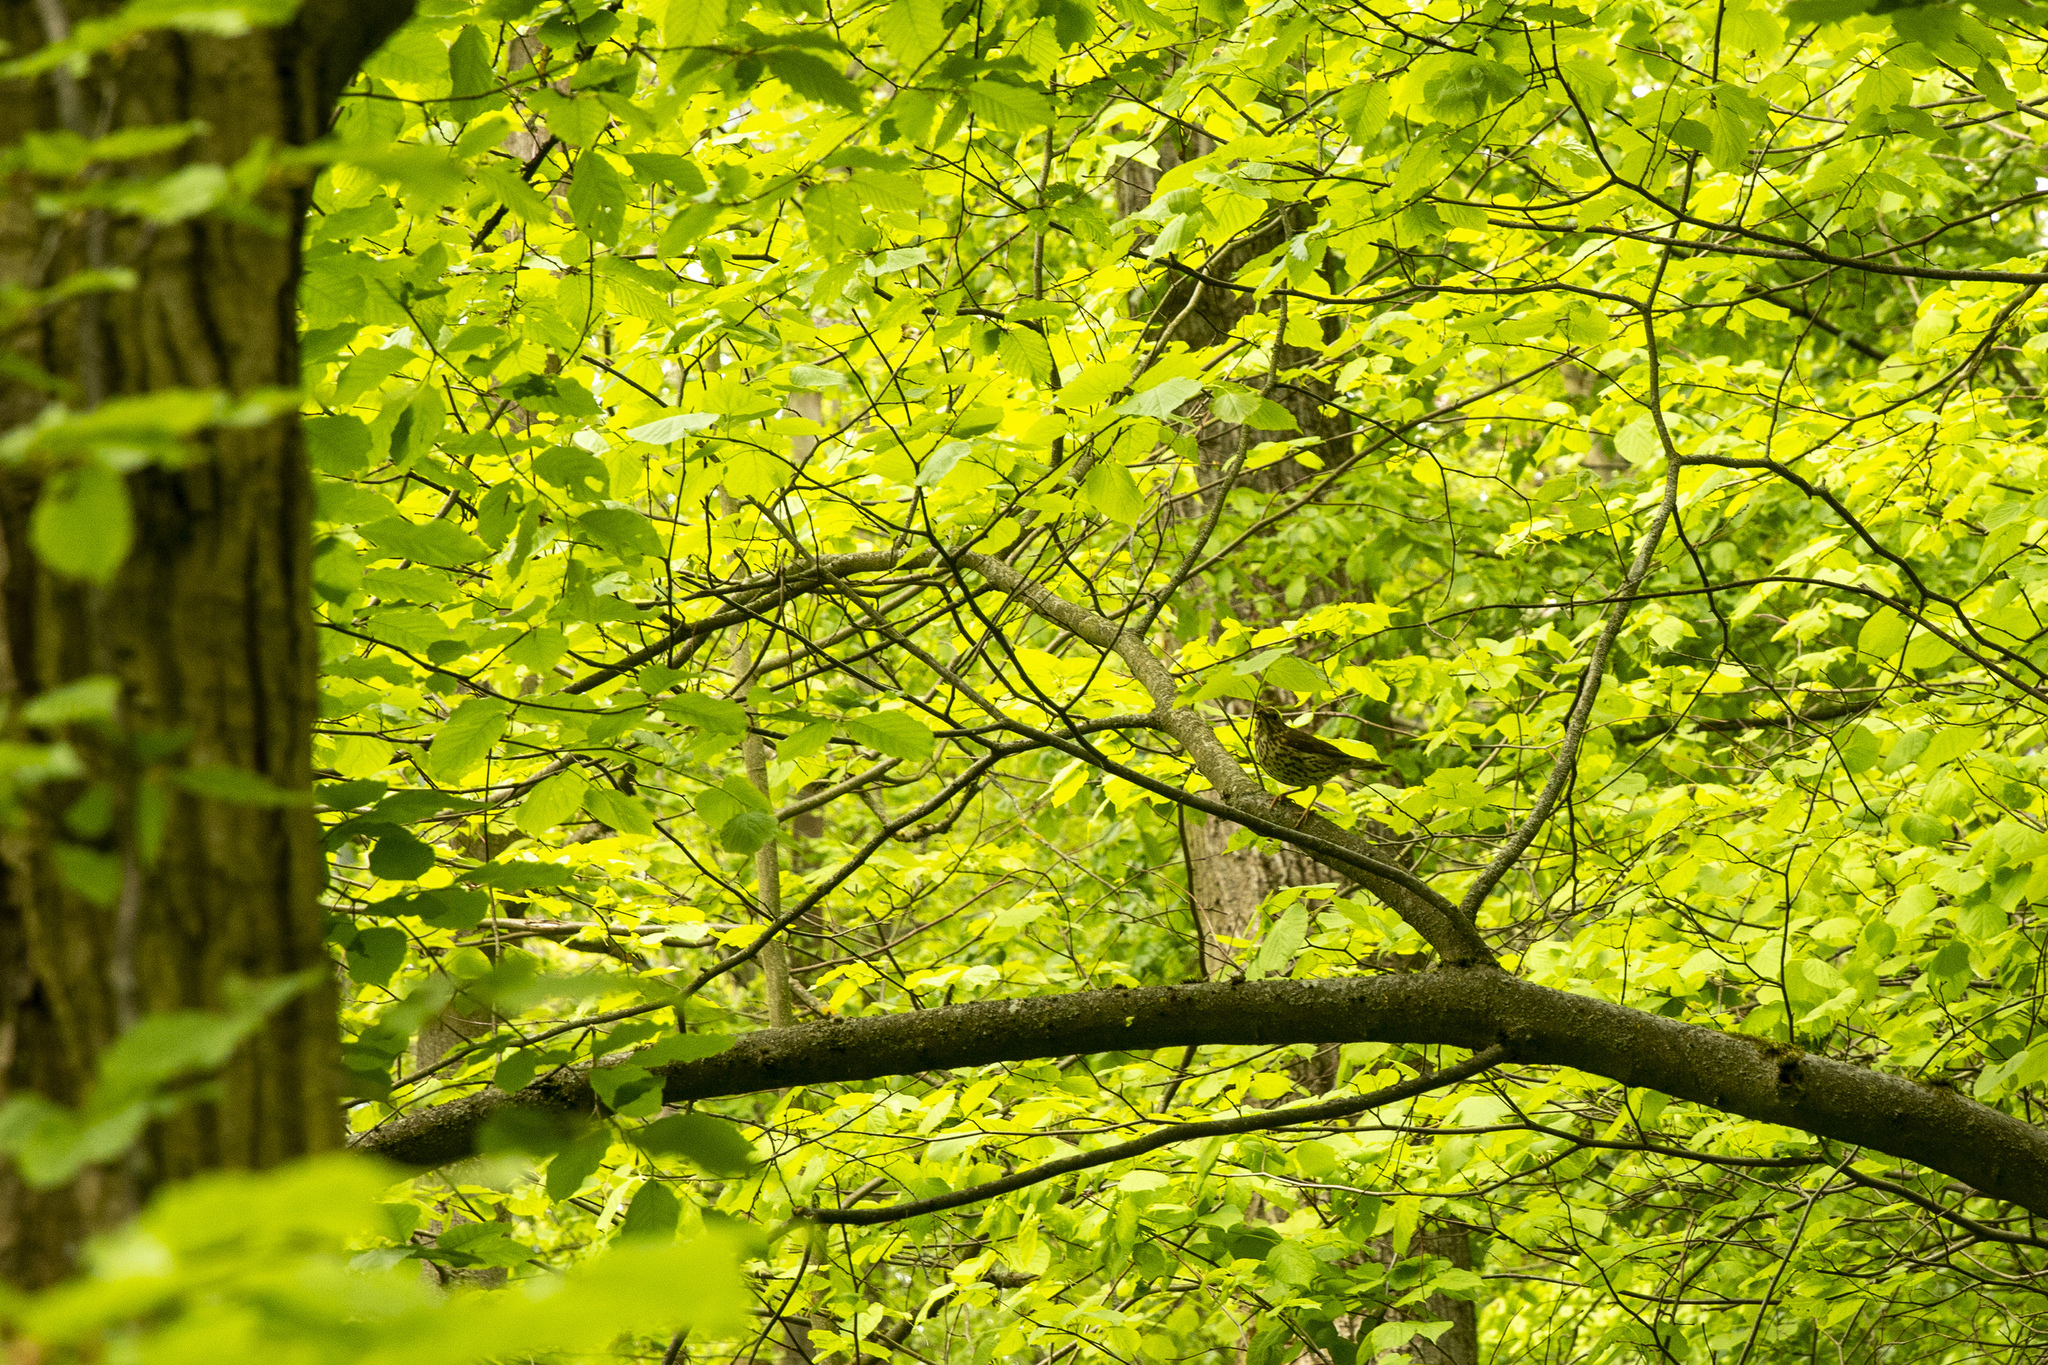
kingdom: Animalia
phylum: Chordata
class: Aves
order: Passeriformes
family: Turdidae
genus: Turdus
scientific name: Turdus philomelos
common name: Song thrush
